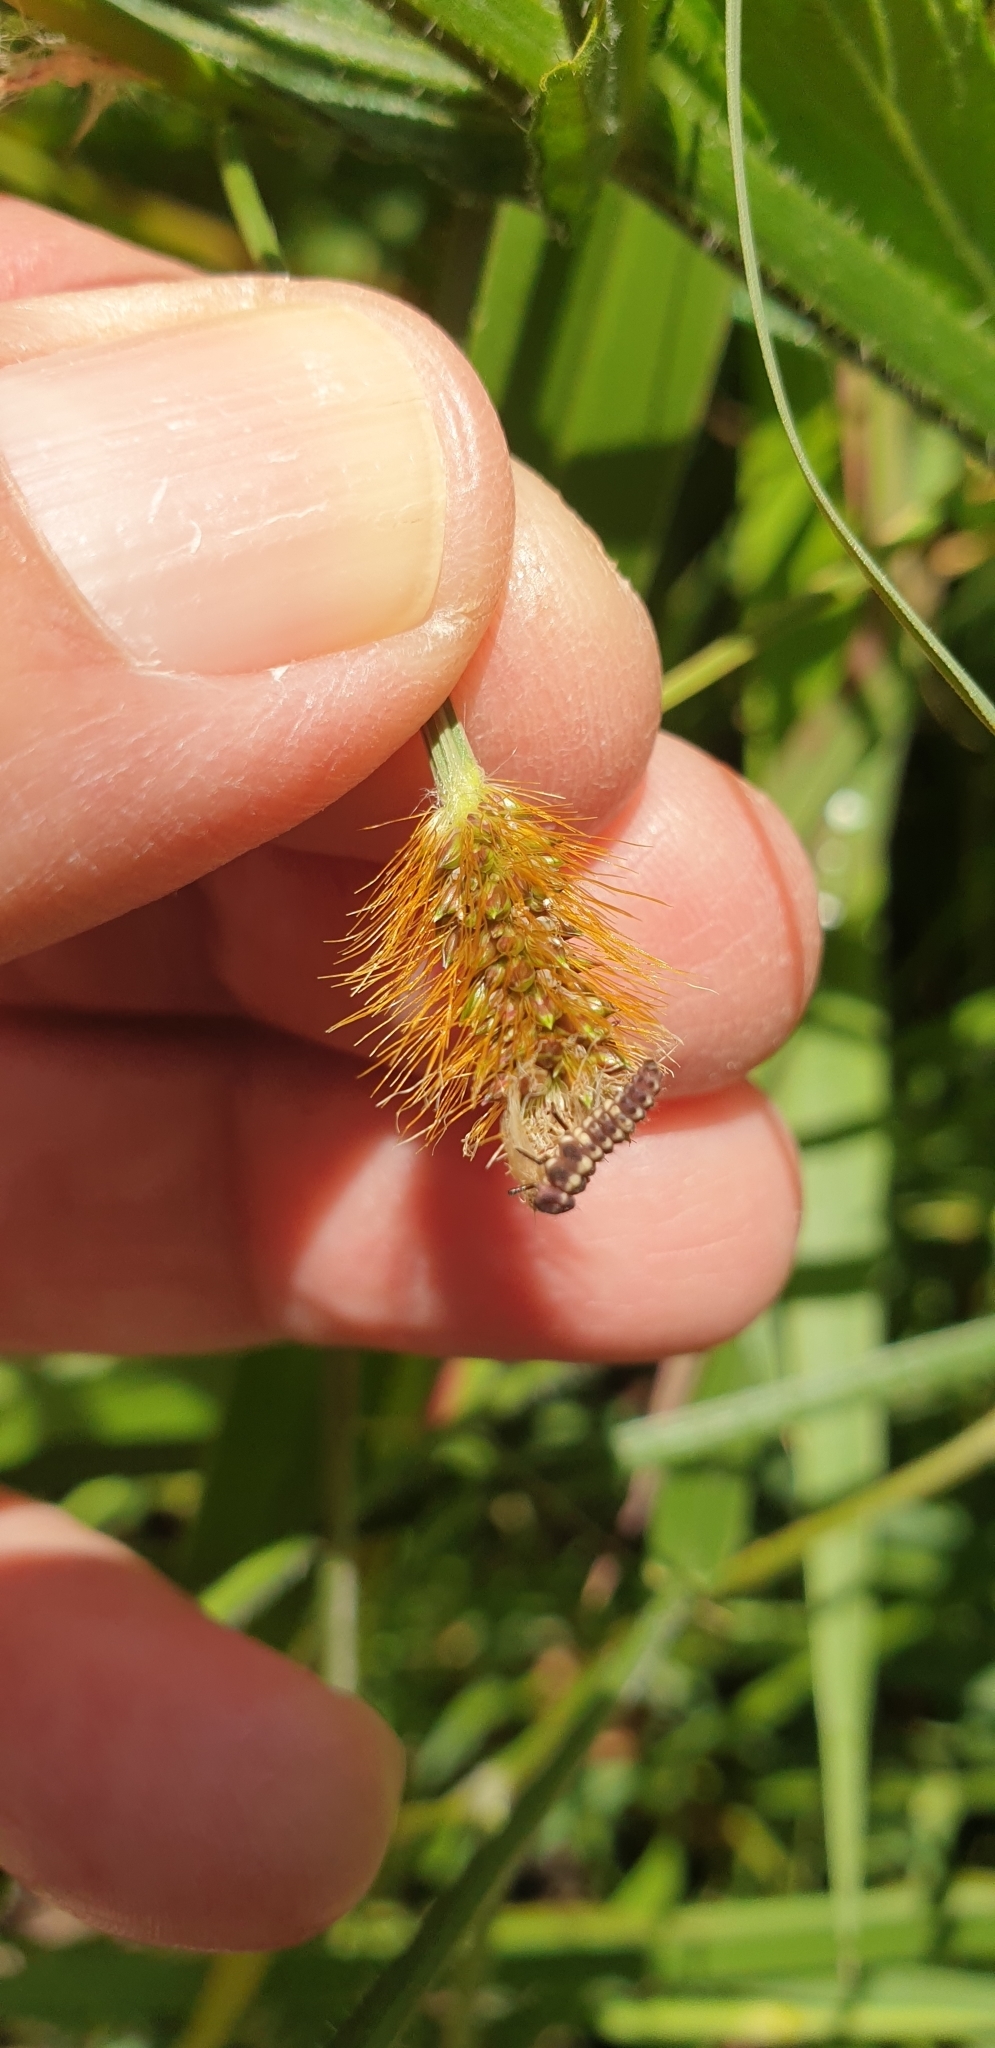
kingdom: Animalia
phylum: Arthropoda
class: Insecta
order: Coleoptera
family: Coccinellidae
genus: Micraspis
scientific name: Micraspis frenata
